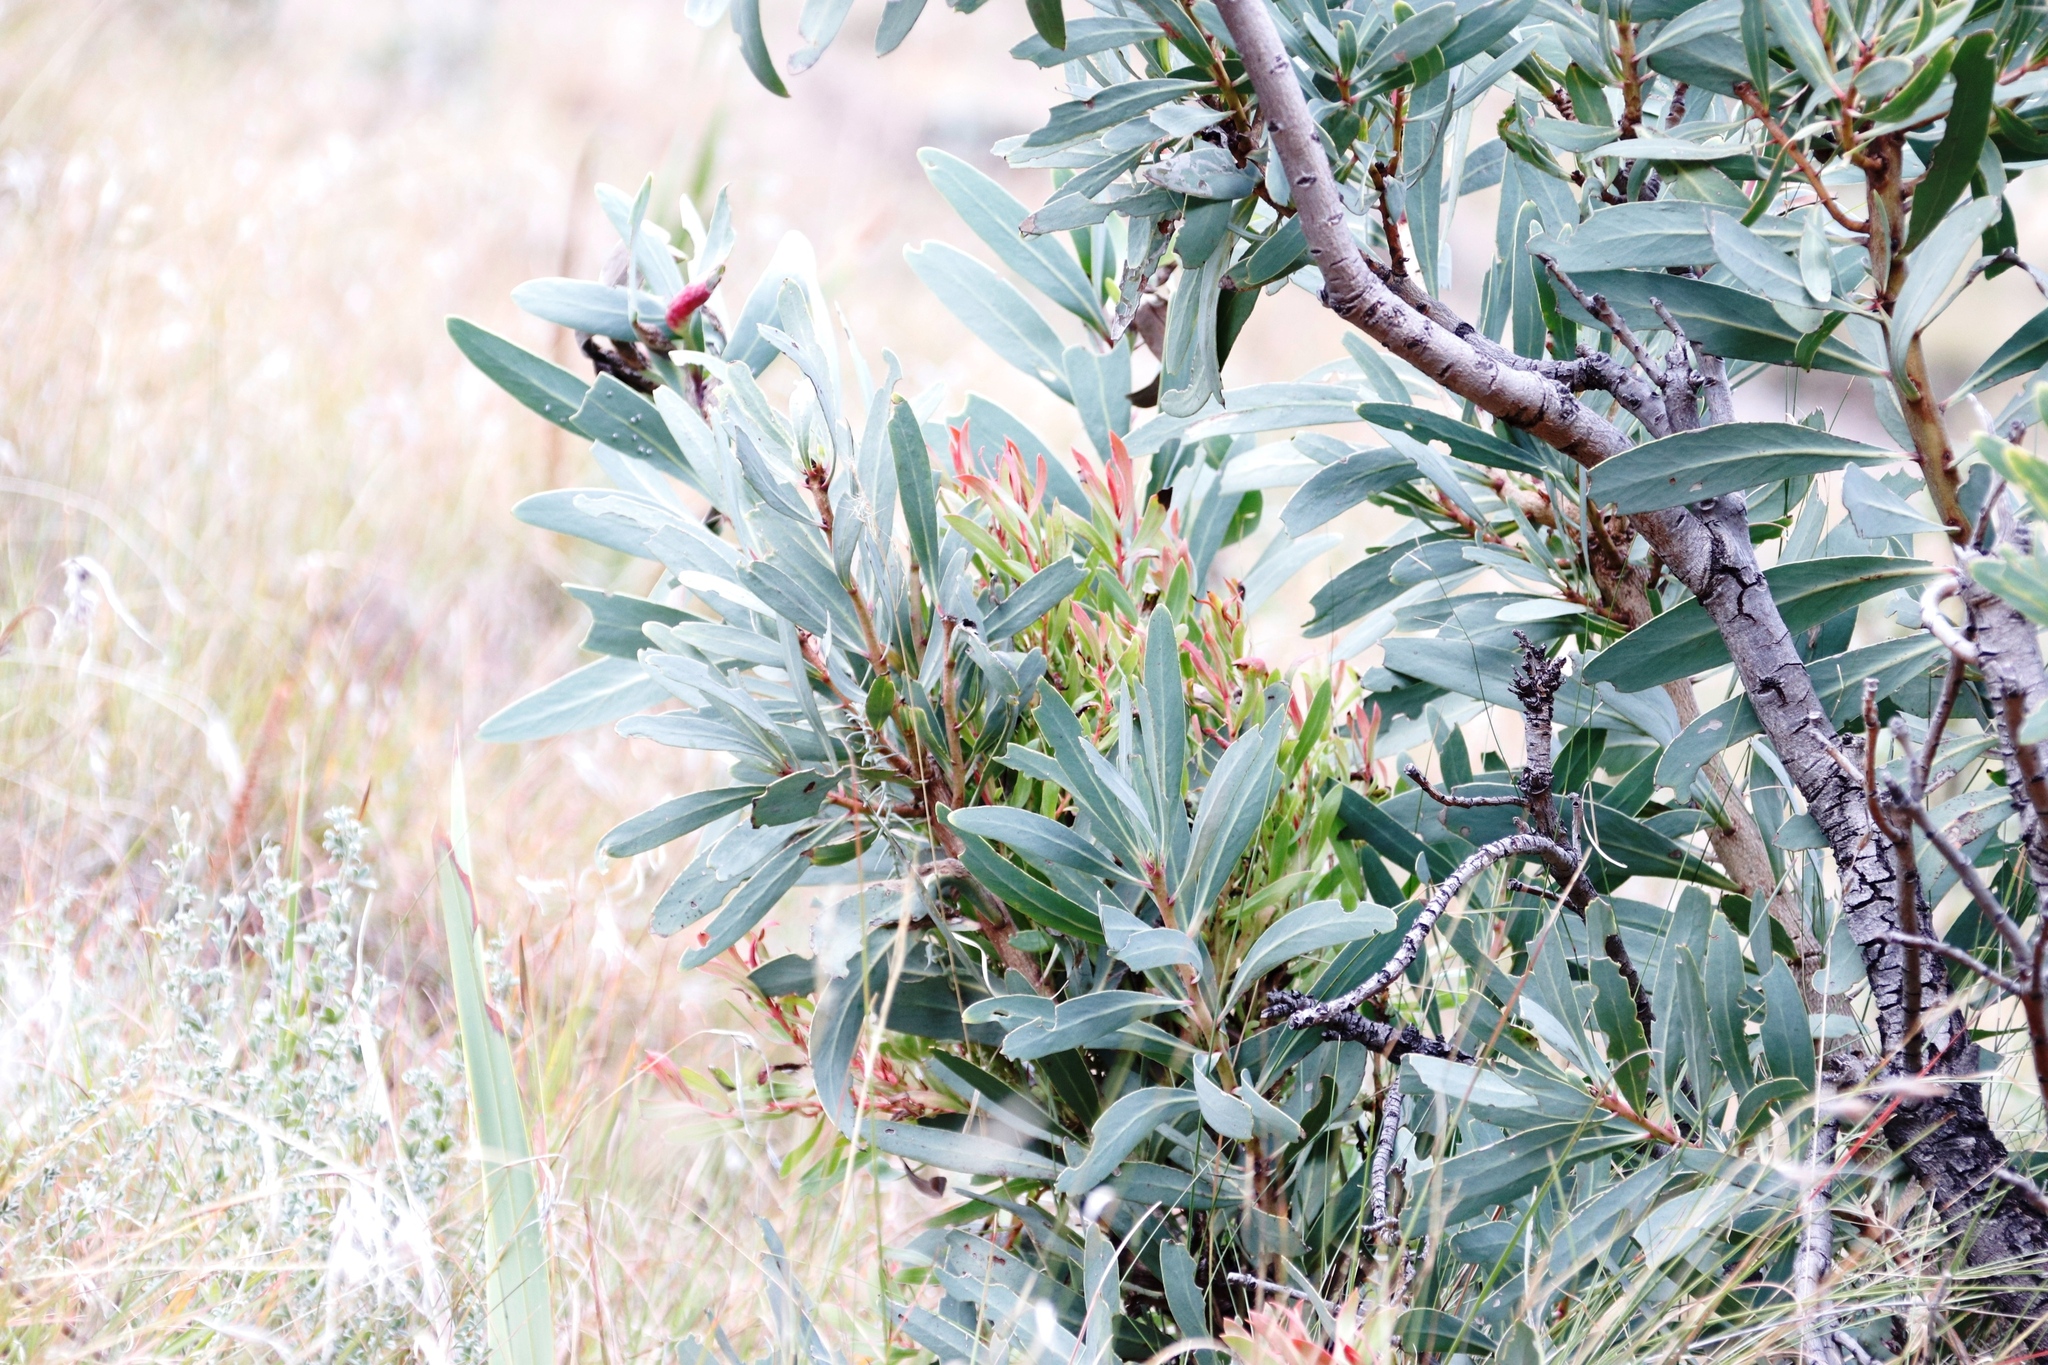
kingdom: Bacteria
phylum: Firmicutes
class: Bacilli
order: Acholeplasmatales
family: Acholeplasmataceae
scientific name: Acholeplasmataceae
